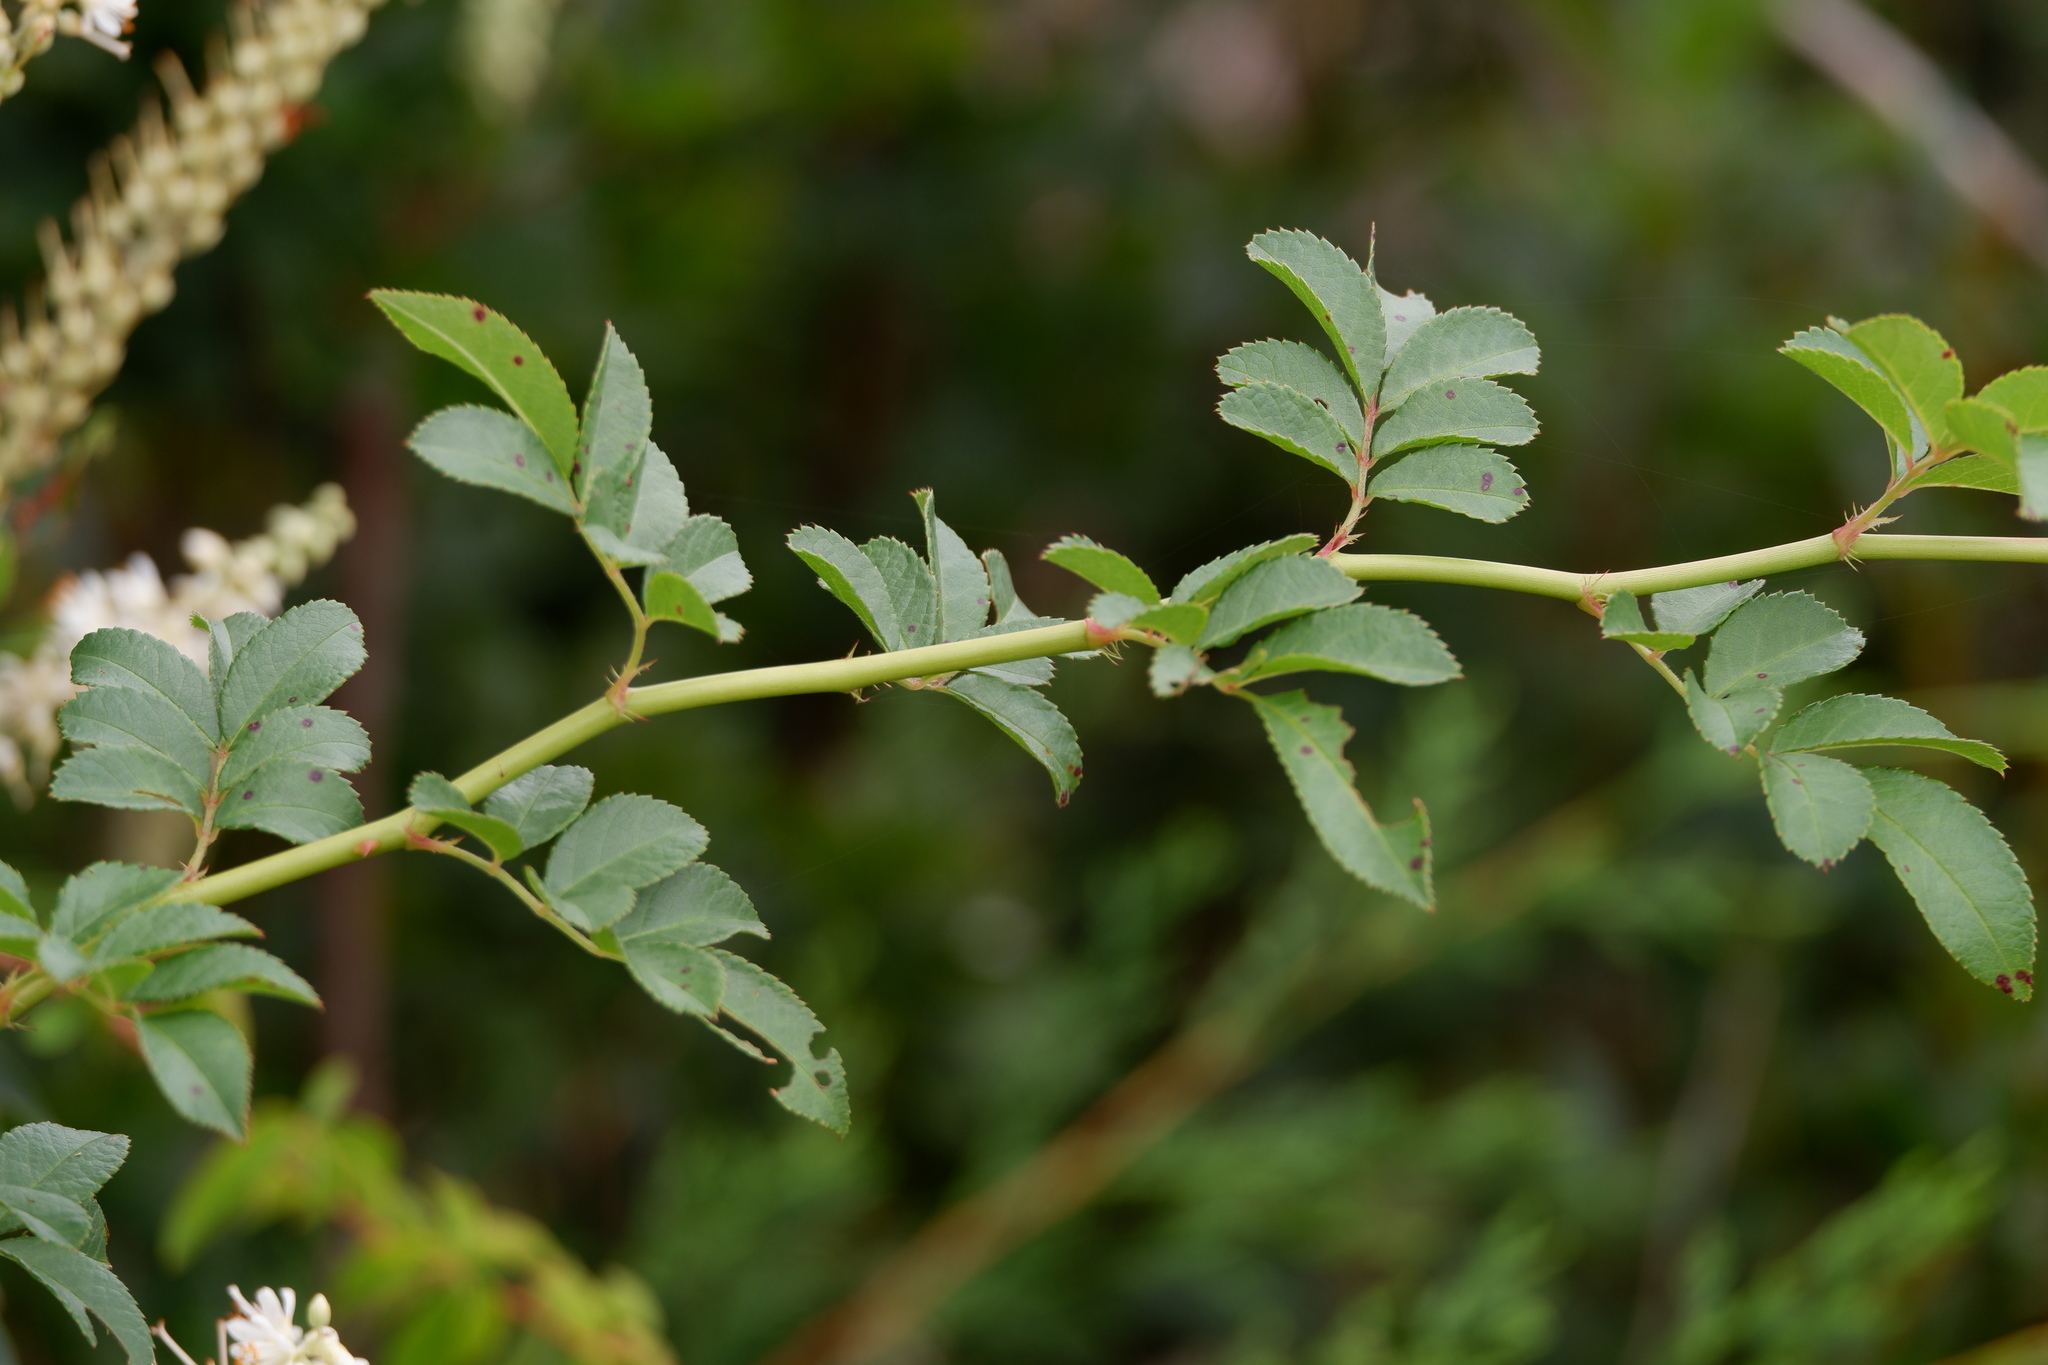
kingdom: Plantae
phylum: Tracheophyta
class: Magnoliopsida
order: Rosales
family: Rosaceae
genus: Rosa
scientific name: Rosa multiflora
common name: Multiflora rose
